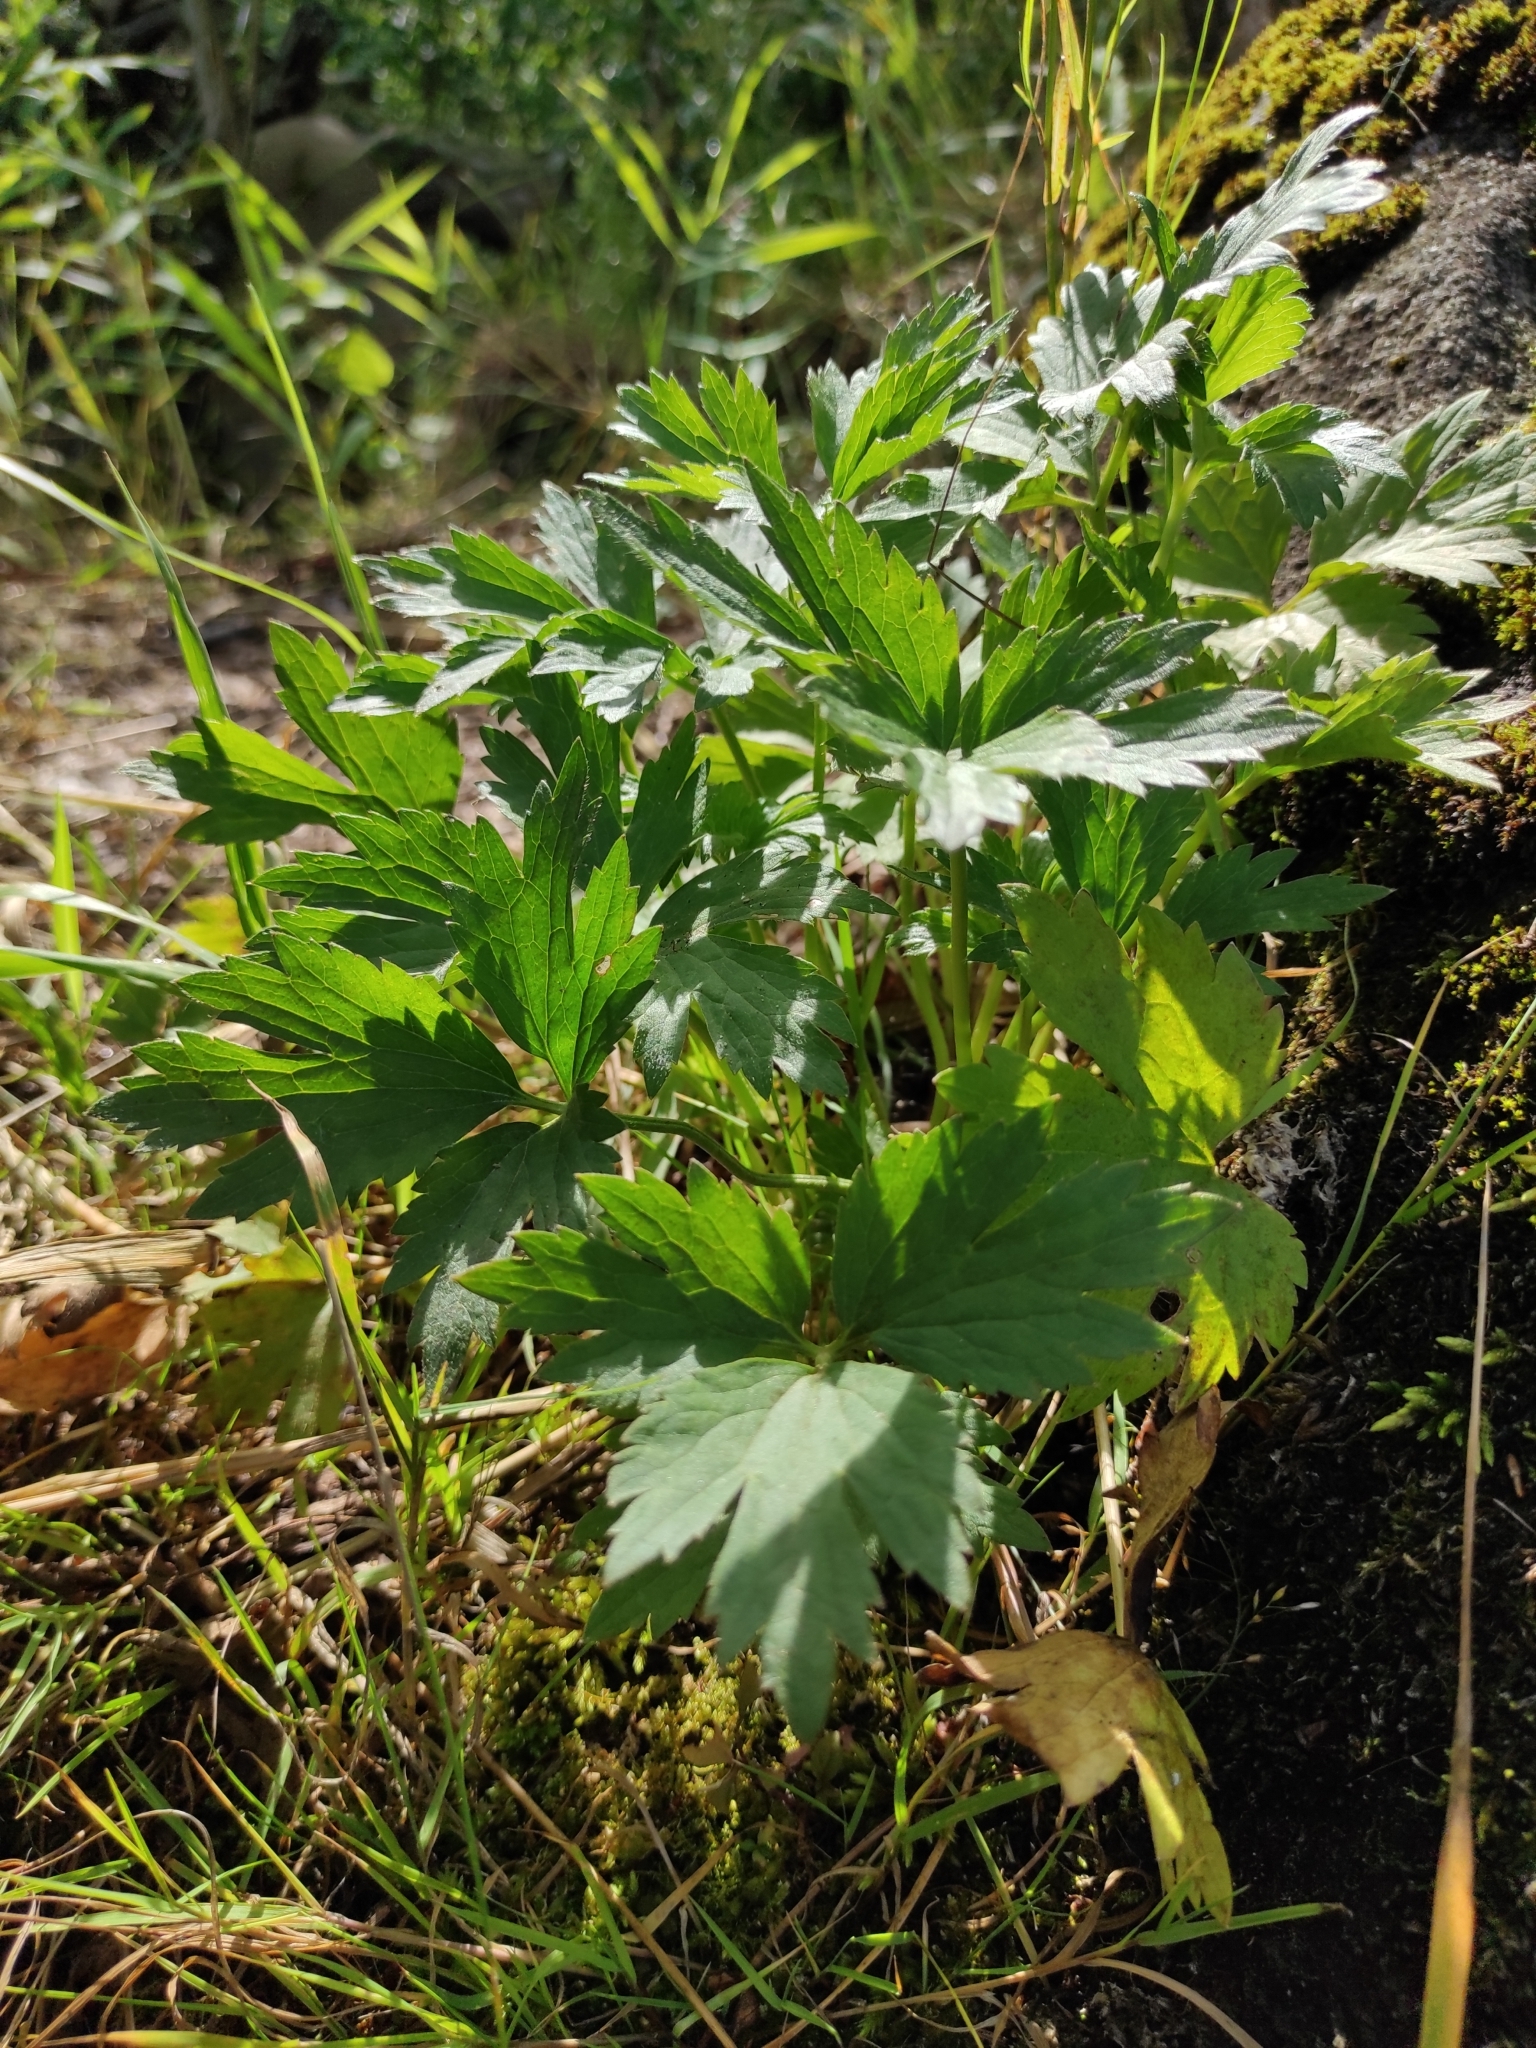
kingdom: Plantae
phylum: Tracheophyta
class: Magnoliopsida
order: Ranunculales
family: Ranunculaceae
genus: Ranunculus
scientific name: Ranunculus repens
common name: Creeping buttercup
